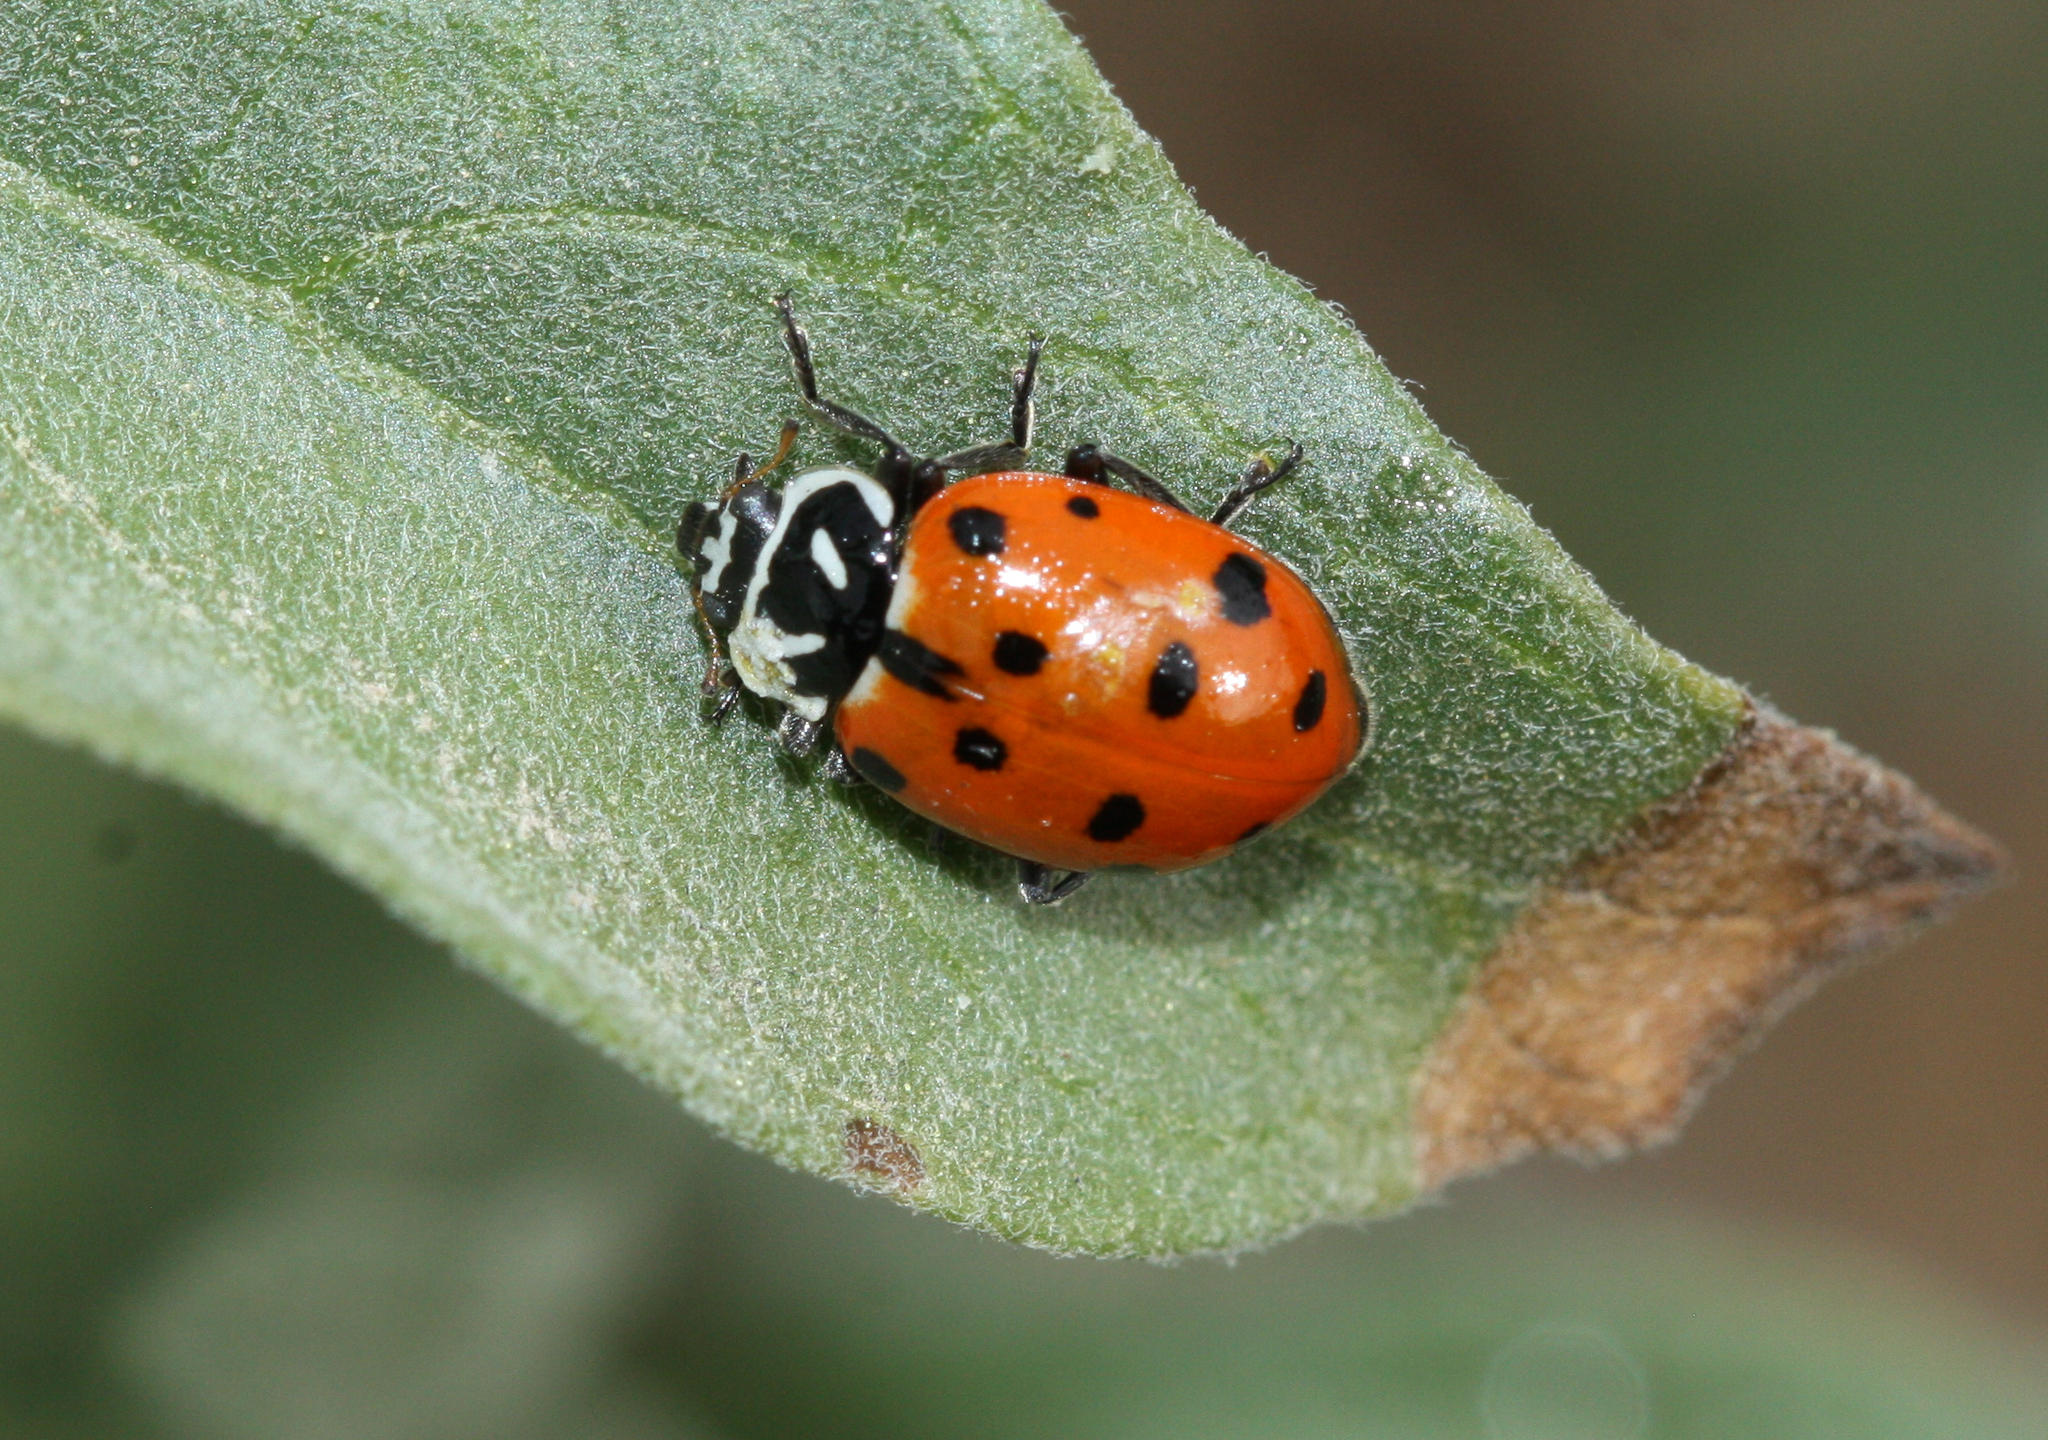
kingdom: Animalia
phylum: Arthropoda
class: Insecta
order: Coleoptera
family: Coccinellidae
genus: Hippodamia
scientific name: Hippodamia convergens
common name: Convergent lady beetle
